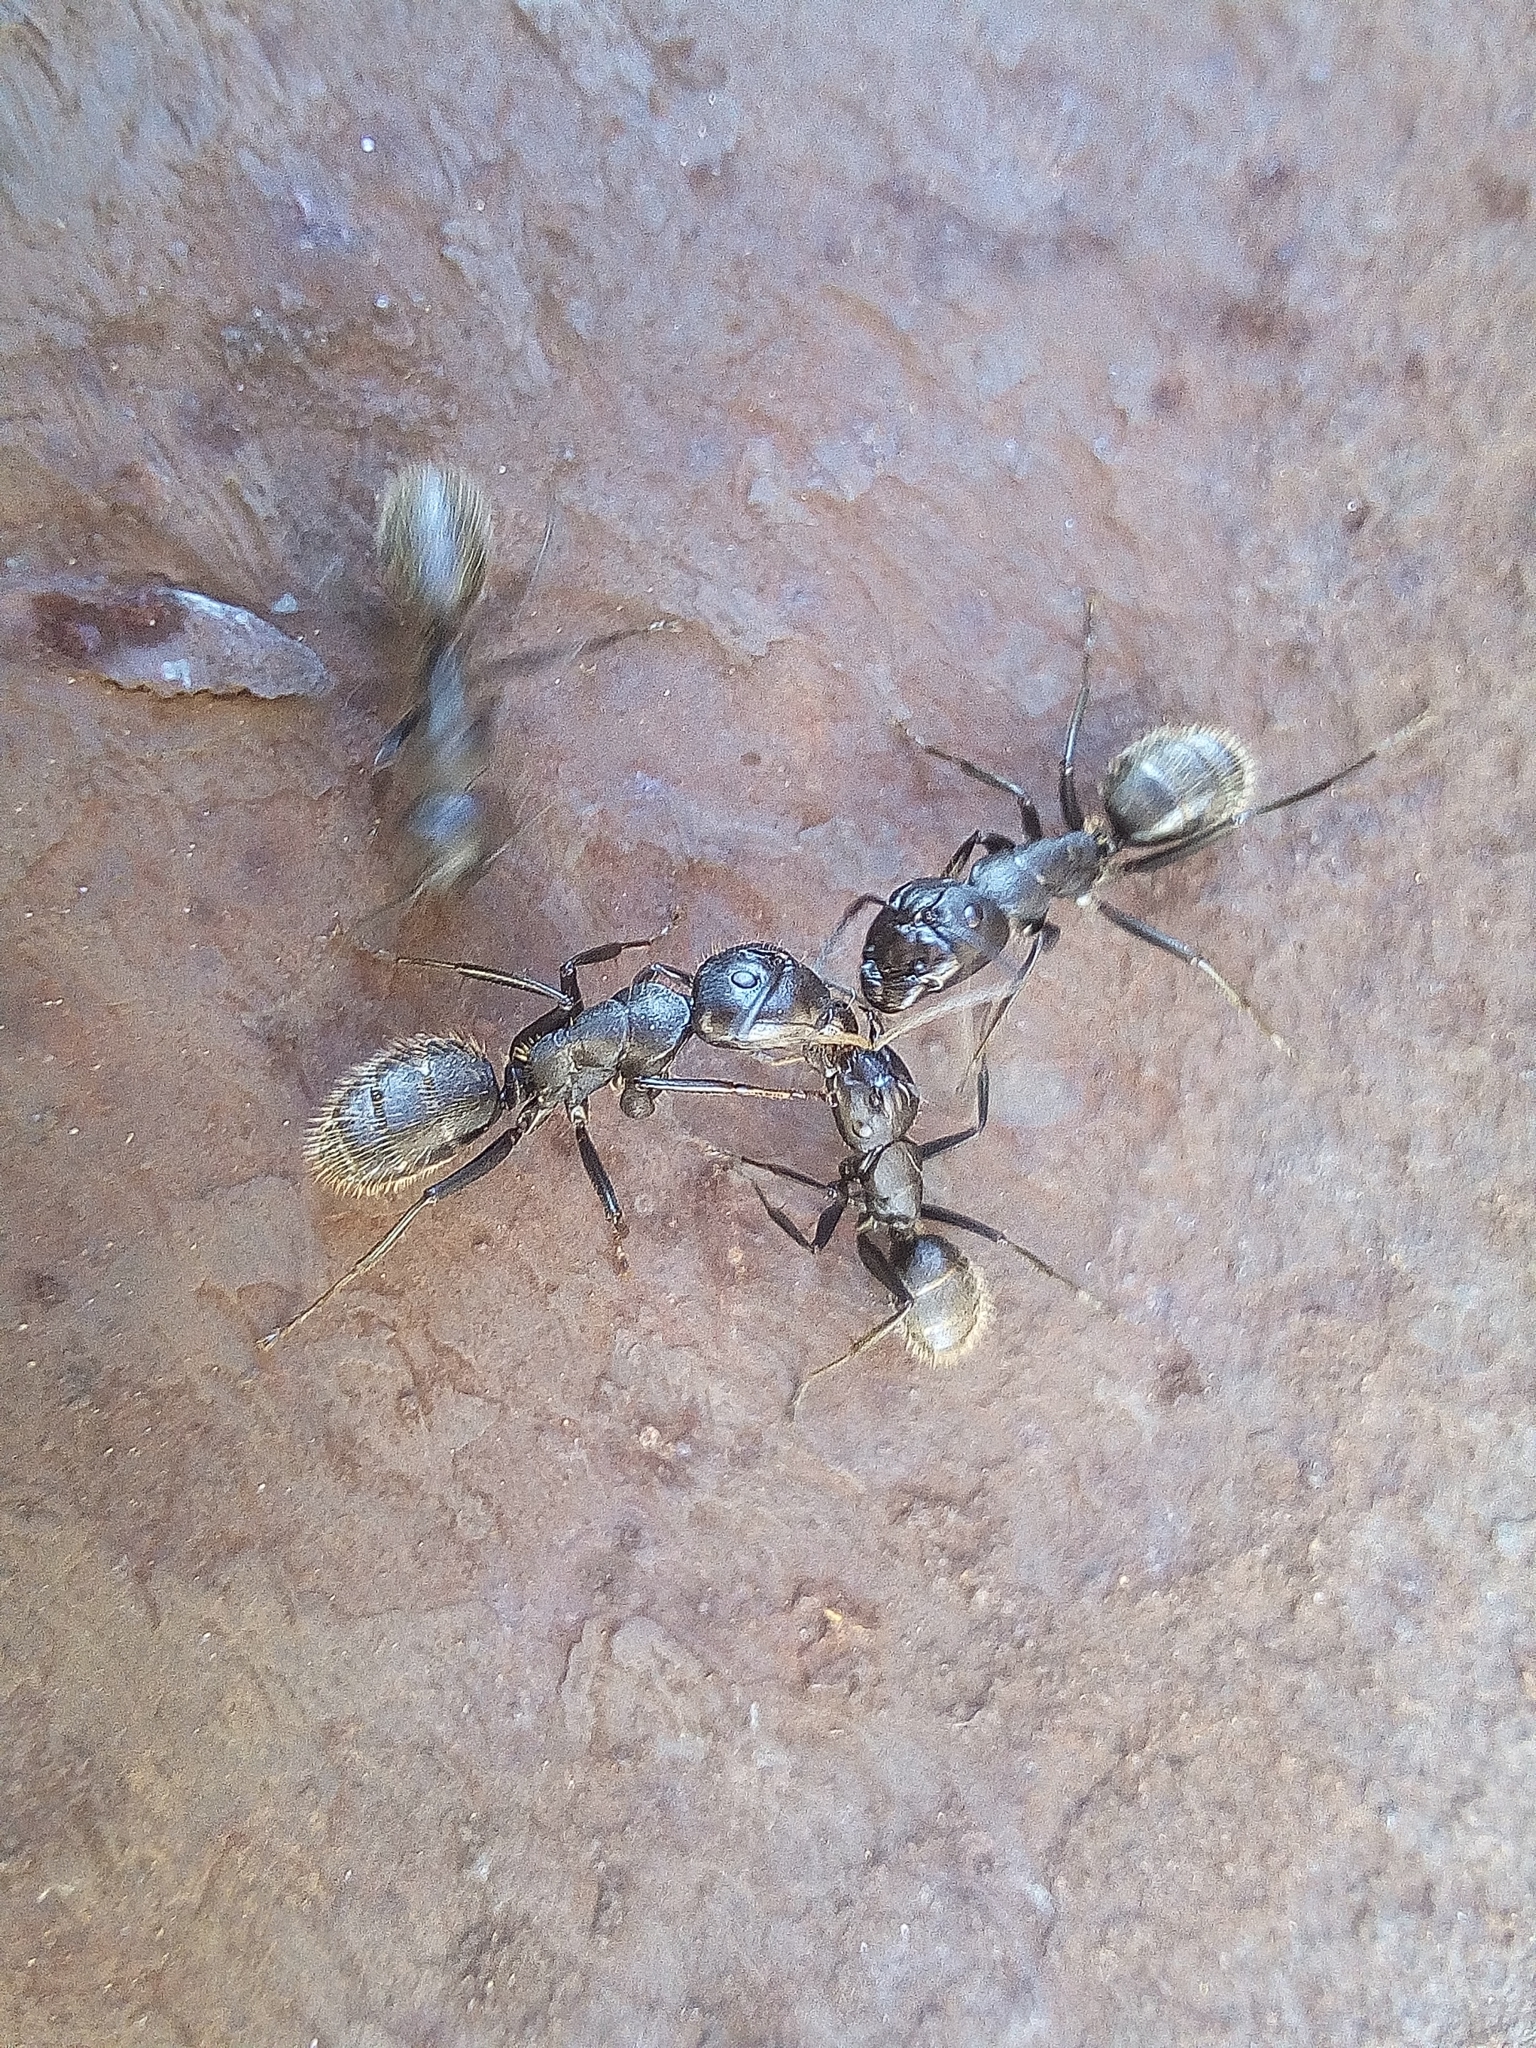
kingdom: Animalia
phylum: Arthropoda
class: Insecta
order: Hymenoptera
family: Formicidae
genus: Camponotus
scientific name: Camponotus vagus
